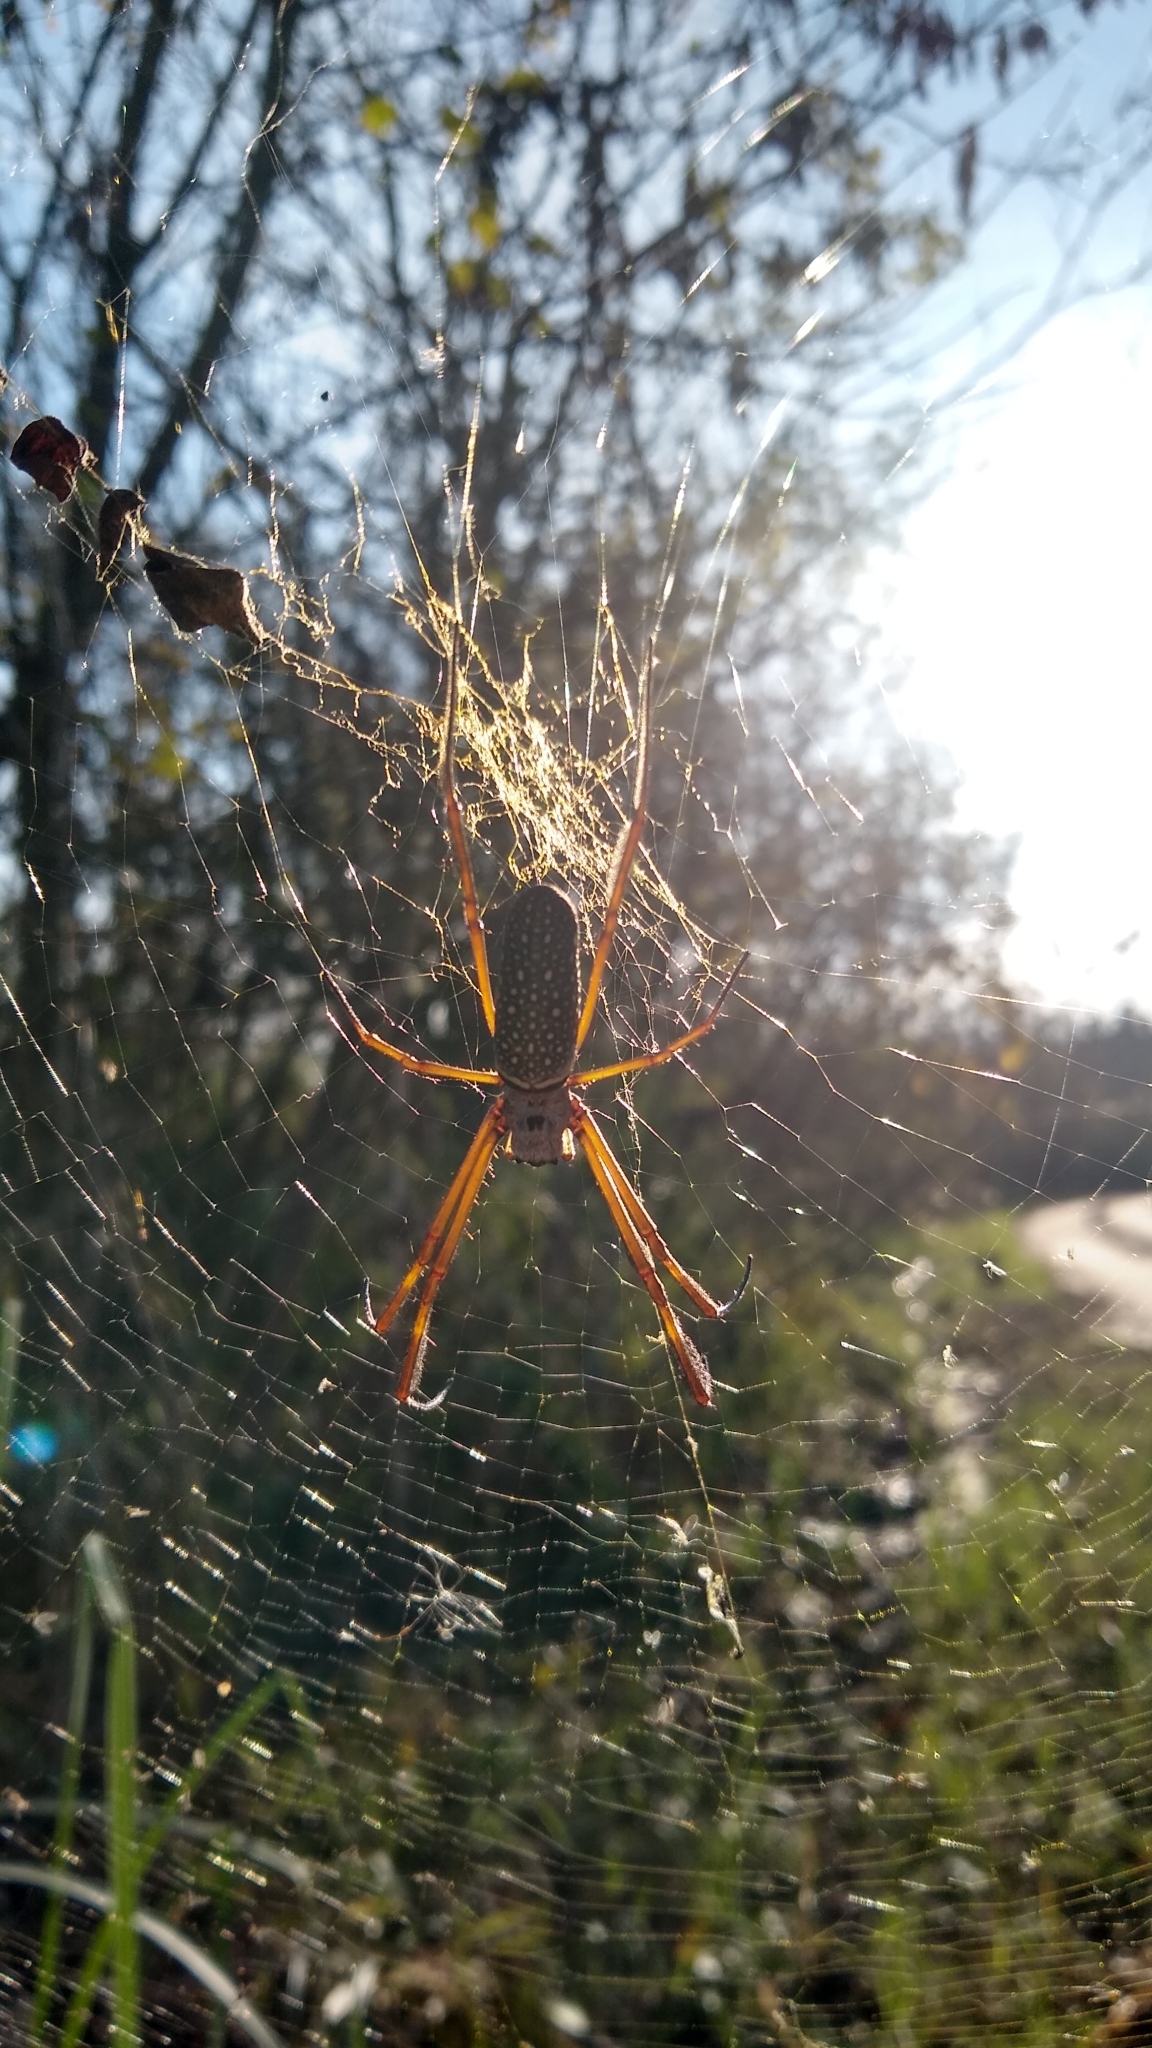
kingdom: Animalia
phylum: Arthropoda
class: Arachnida
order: Araneae
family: Araneidae
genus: Trichonephila
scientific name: Trichonephila clavipes
